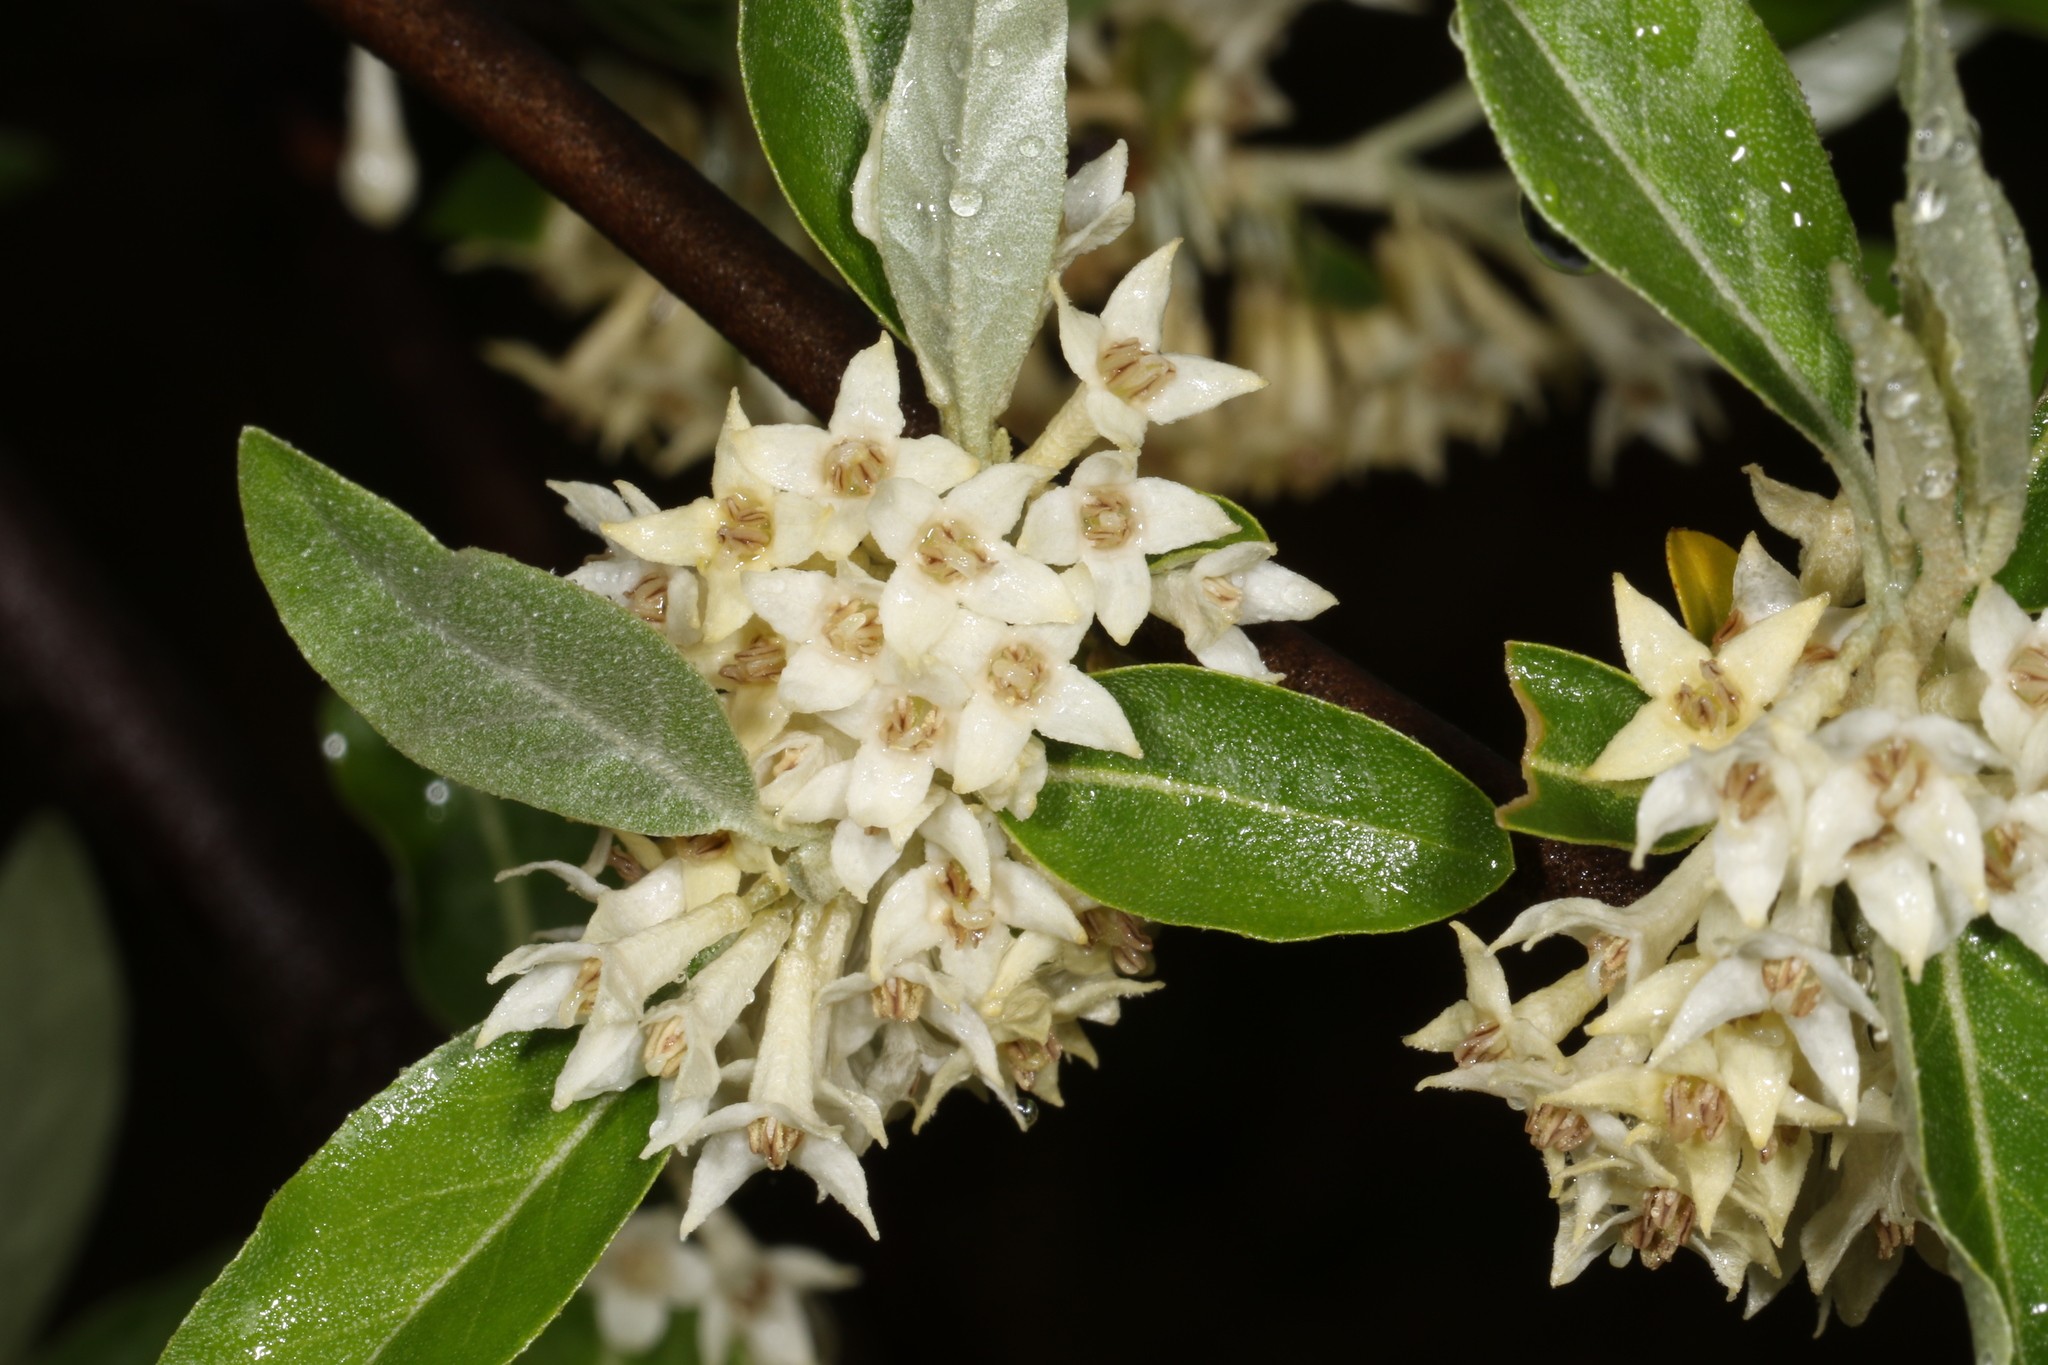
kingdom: Plantae
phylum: Tracheophyta
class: Magnoliopsida
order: Rosales
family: Elaeagnaceae
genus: Elaeagnus
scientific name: Elaeagnus umbellata
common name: Autumn olive
